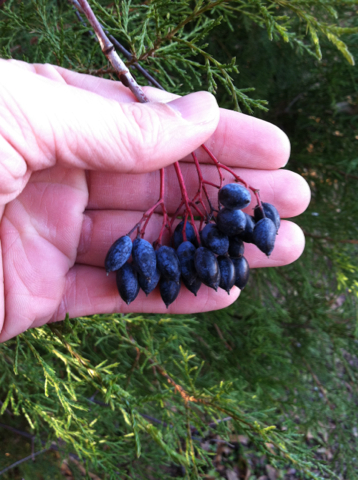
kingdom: Plantae
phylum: Tracheophyta
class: Magnoliopsida
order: Dipsacales
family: Viburnaceae
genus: Viburnum
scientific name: Viburnum rufidulum
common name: Blue haw
